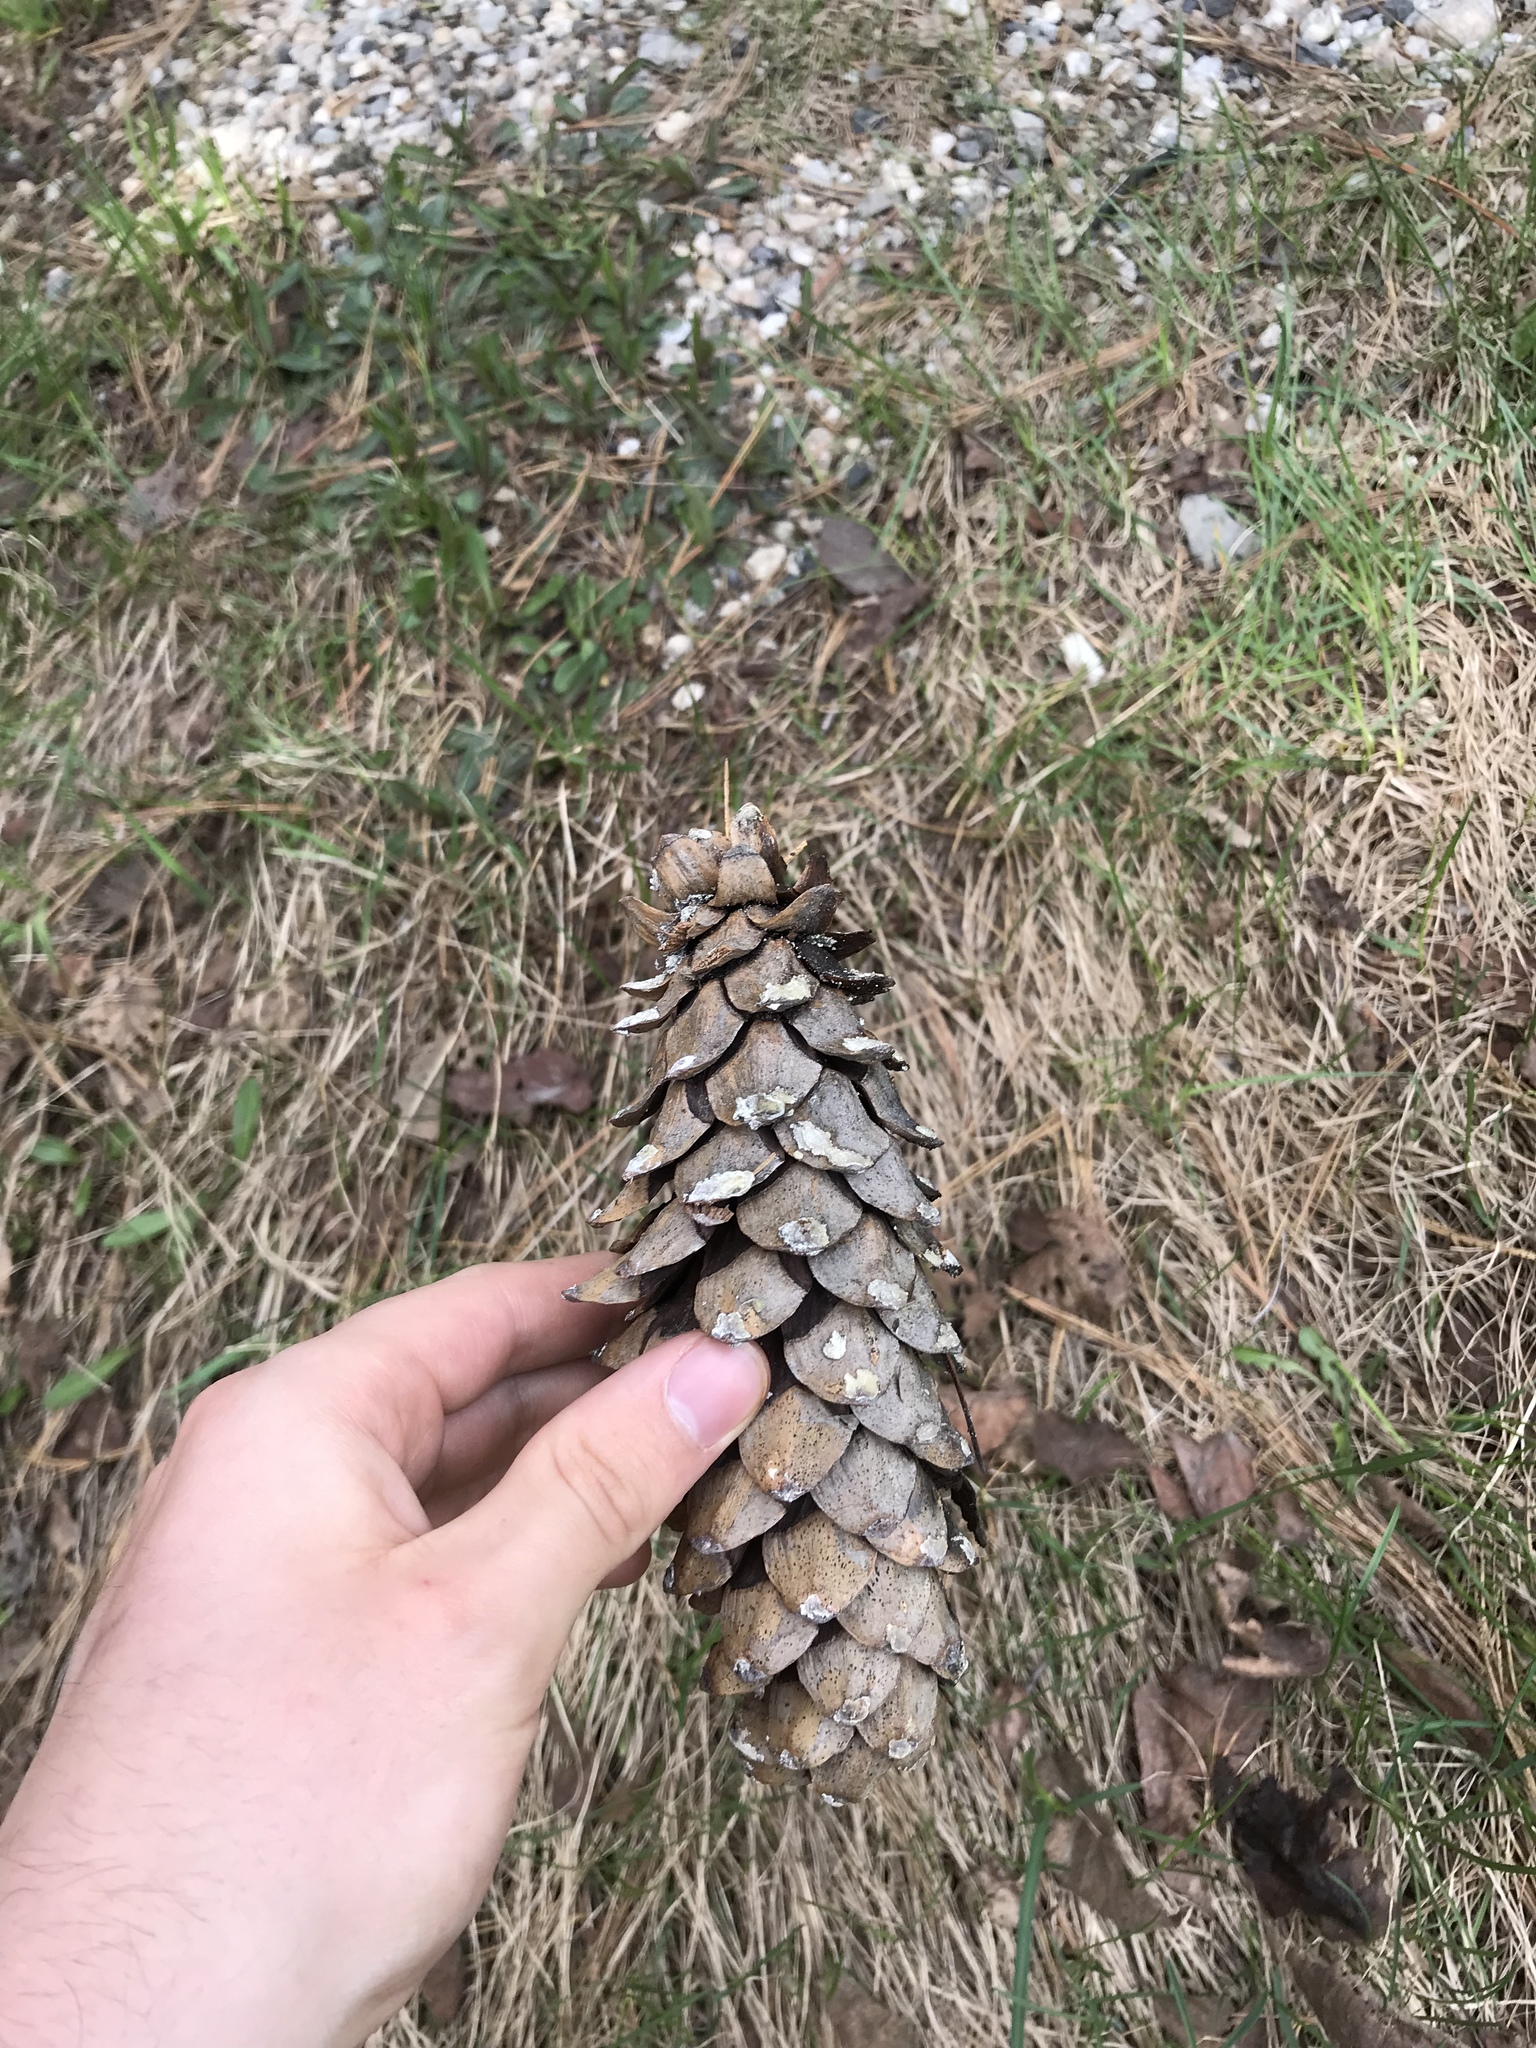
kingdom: Plantae
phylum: Tracheophyta
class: Pinopsida
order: Pinales
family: Pinaceae
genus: Pinus
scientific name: Pinus monticola
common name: Western white pine
